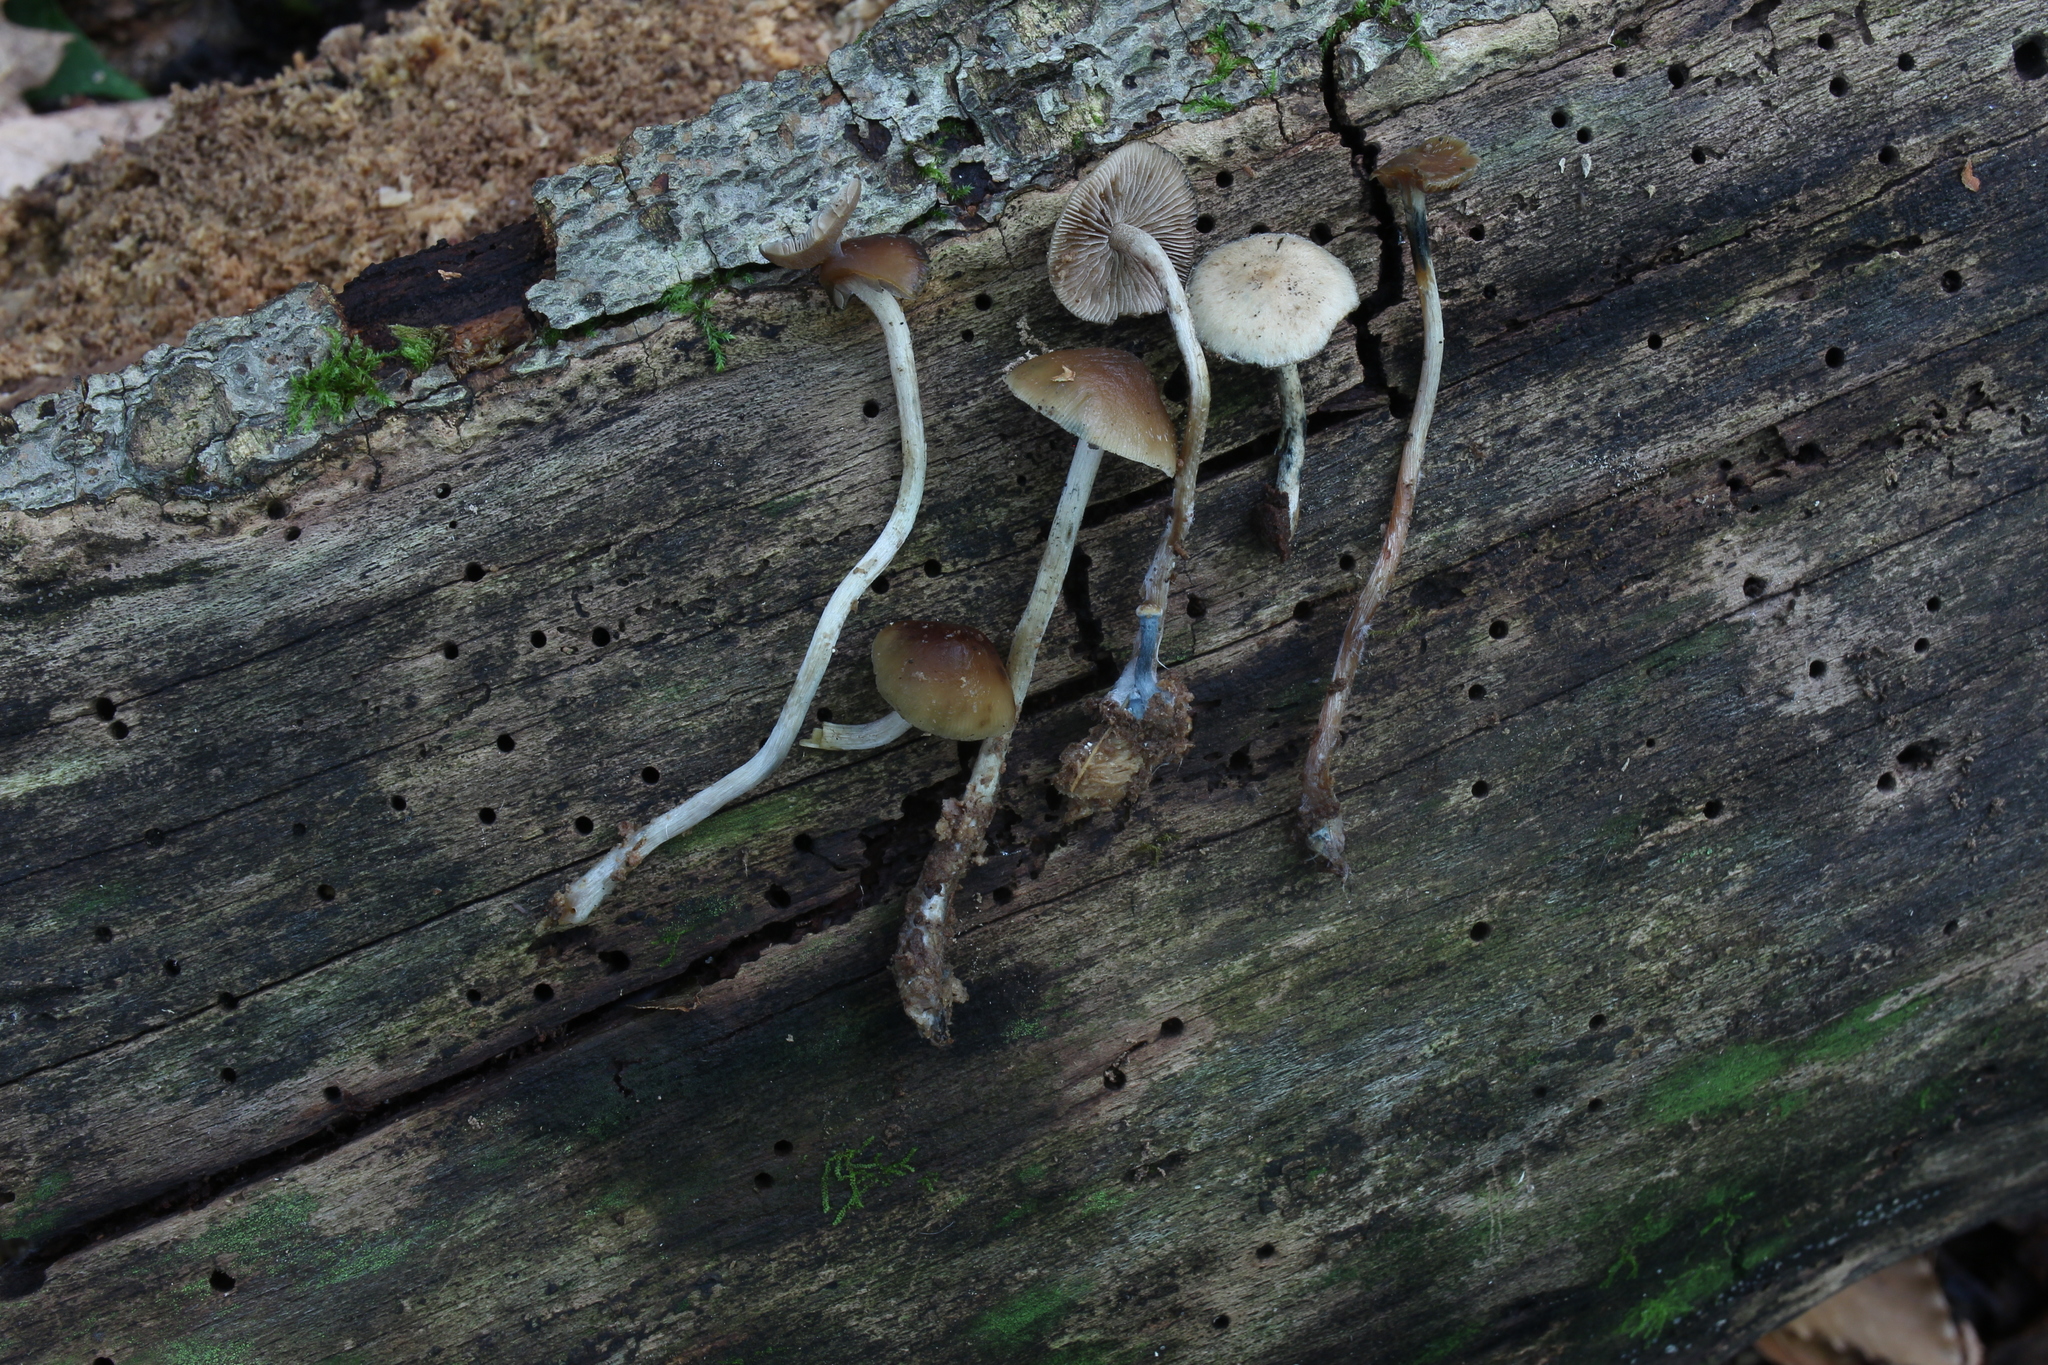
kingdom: Fungi
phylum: Basidiomycota
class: Agaricomycetes
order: Agaricales
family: Hymenogastraceae
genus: Psilocybe
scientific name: Psilocybe caerulipes
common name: Blue-foot
